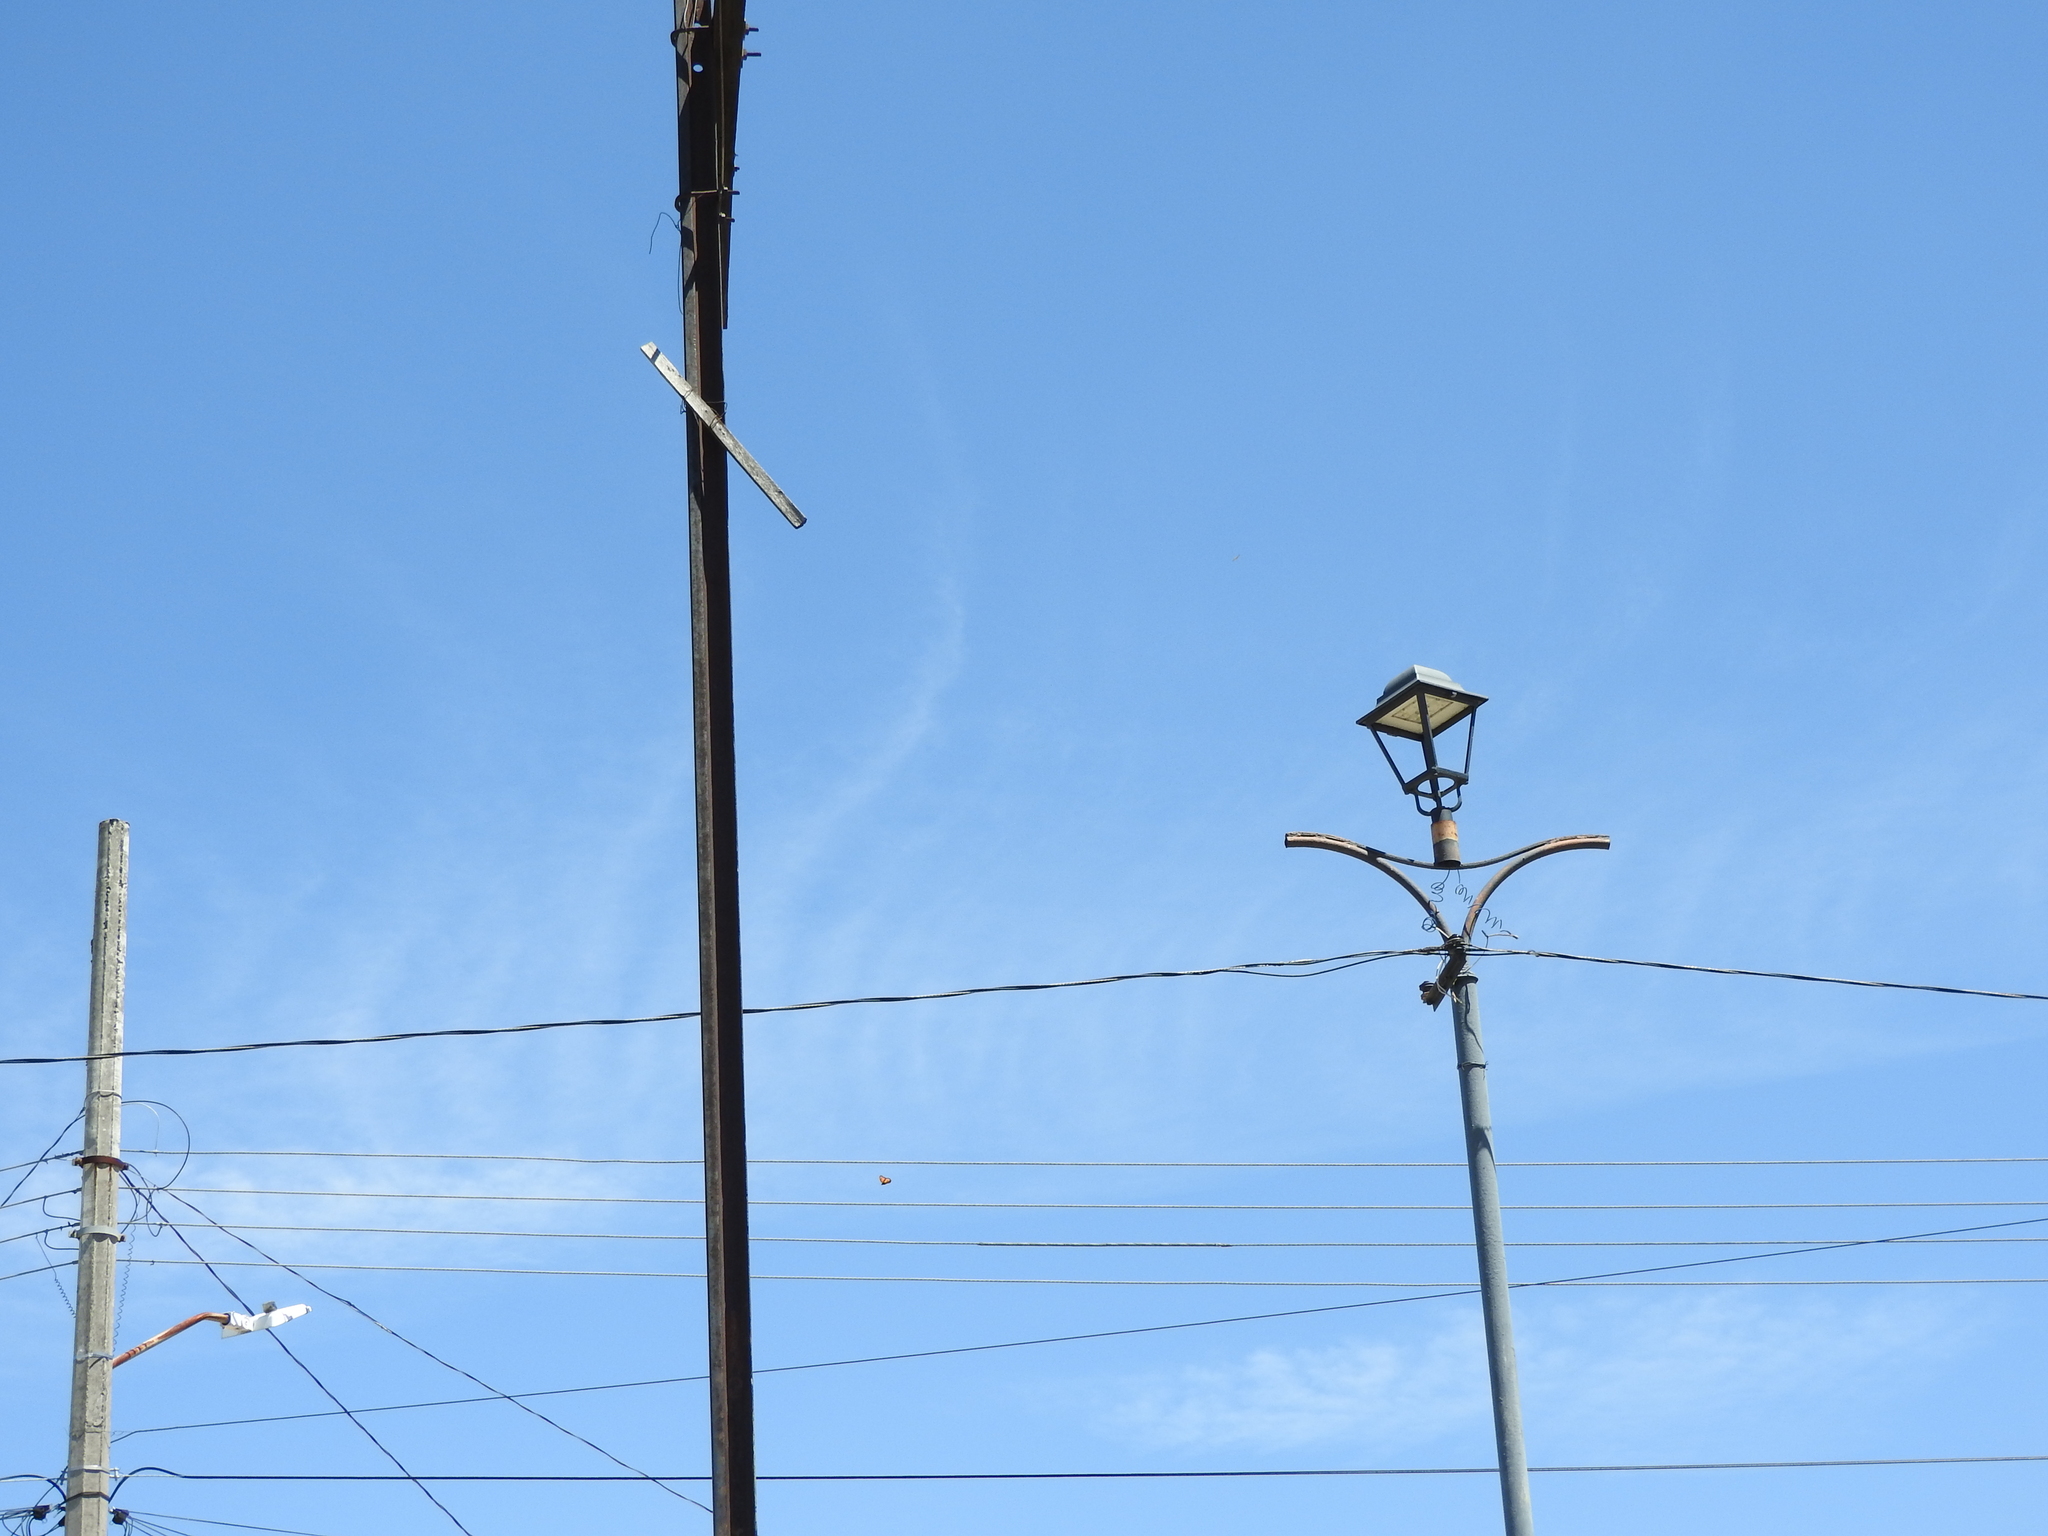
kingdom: Animalia
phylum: Arthropoda
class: Insecta
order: Lepidoptera
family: Nymphalidae
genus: Danaus
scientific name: Danaus plexippus
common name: Monarch
